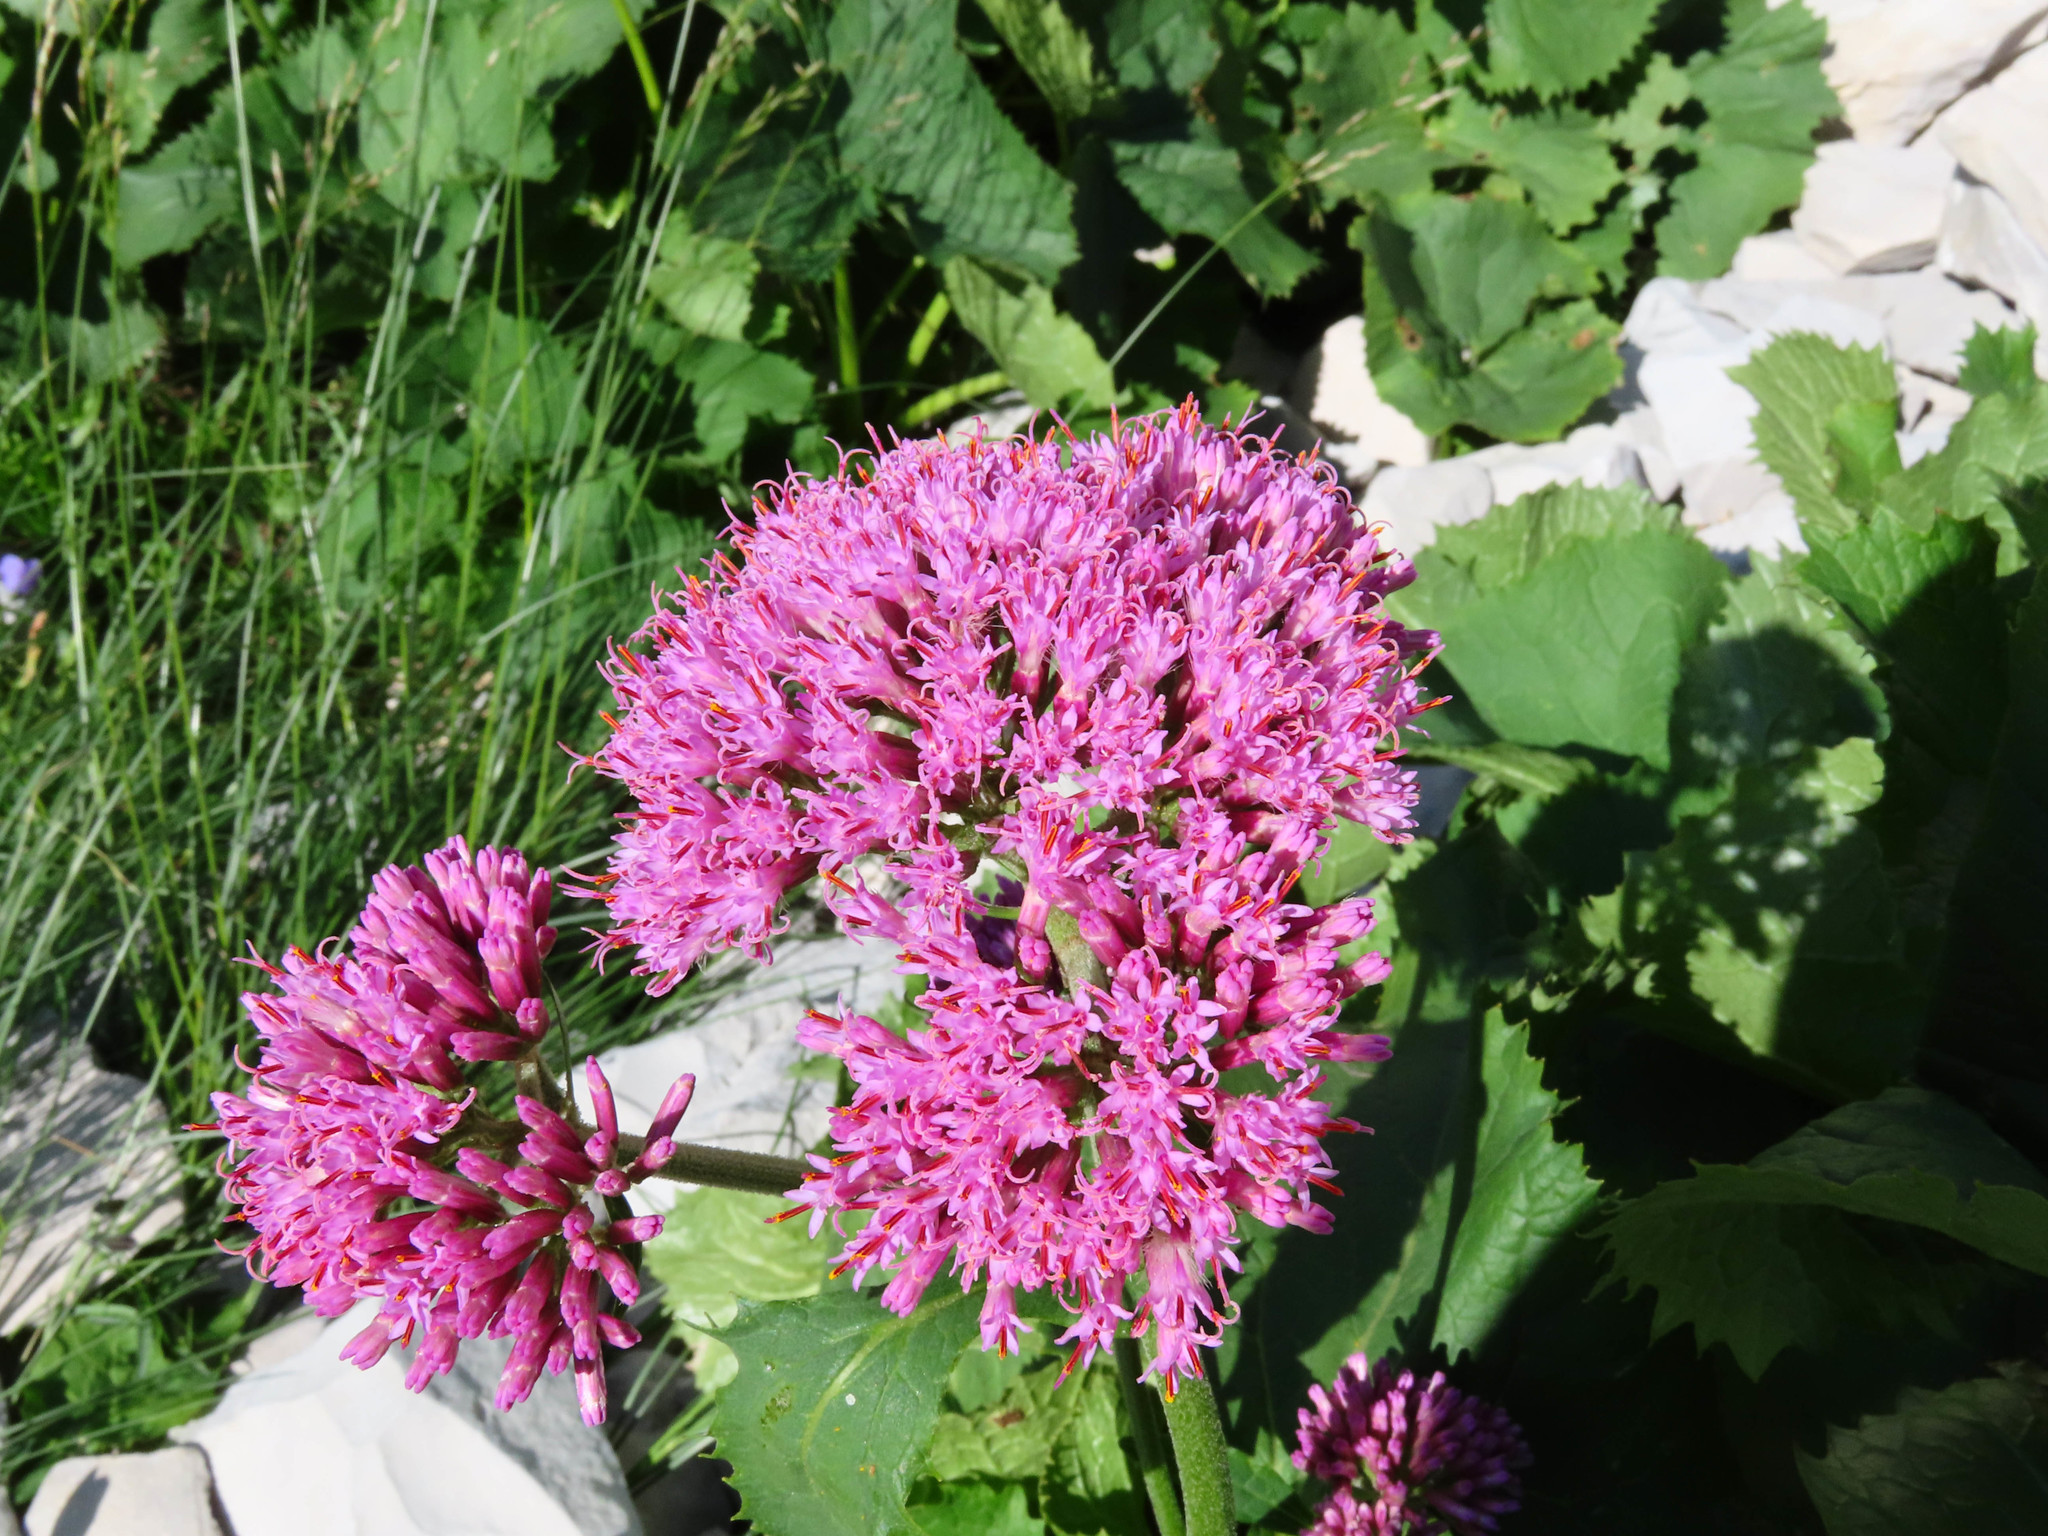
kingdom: Plantae
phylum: Tracheophyta
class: Magnoliopsida
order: Asterales
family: Asteraceae
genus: Adenostyles
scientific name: Adenostyles australis
